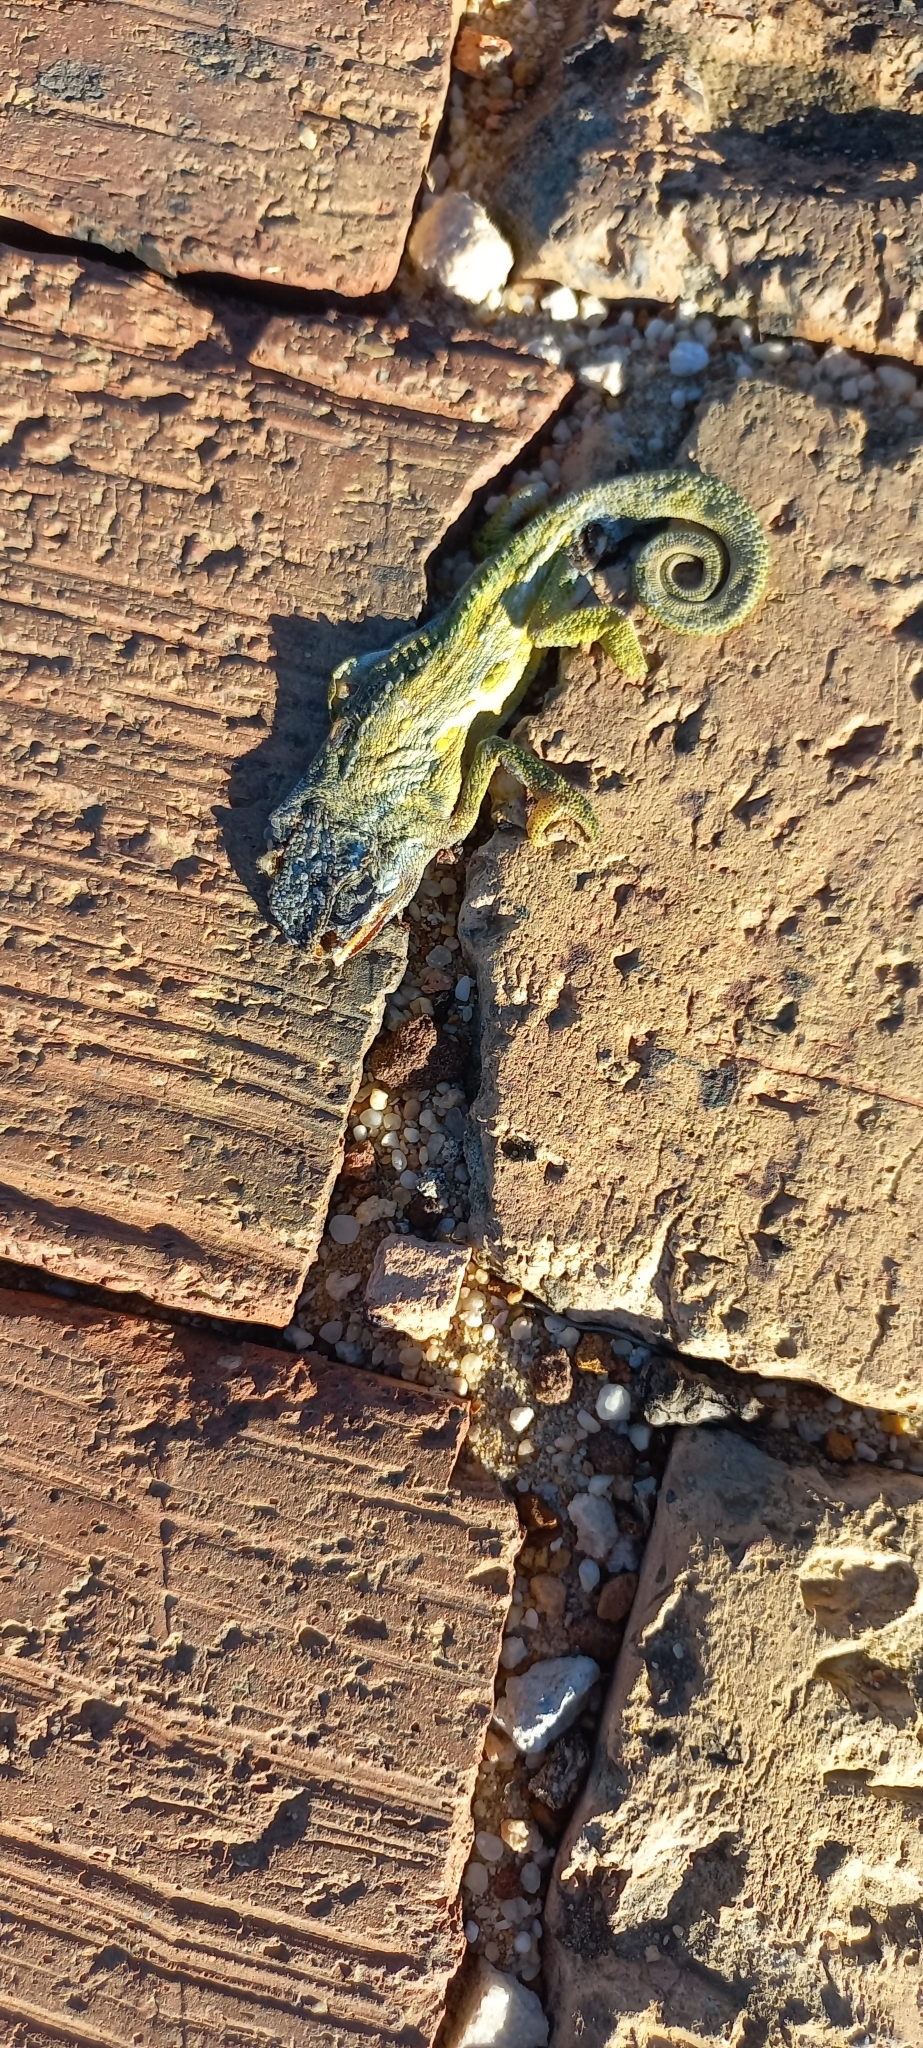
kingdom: Animalia
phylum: Chordata
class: Squamata
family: Chamaeleonidae
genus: Bradypodion
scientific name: Bradypodion pumilum
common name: Cape dwarf chameleon
